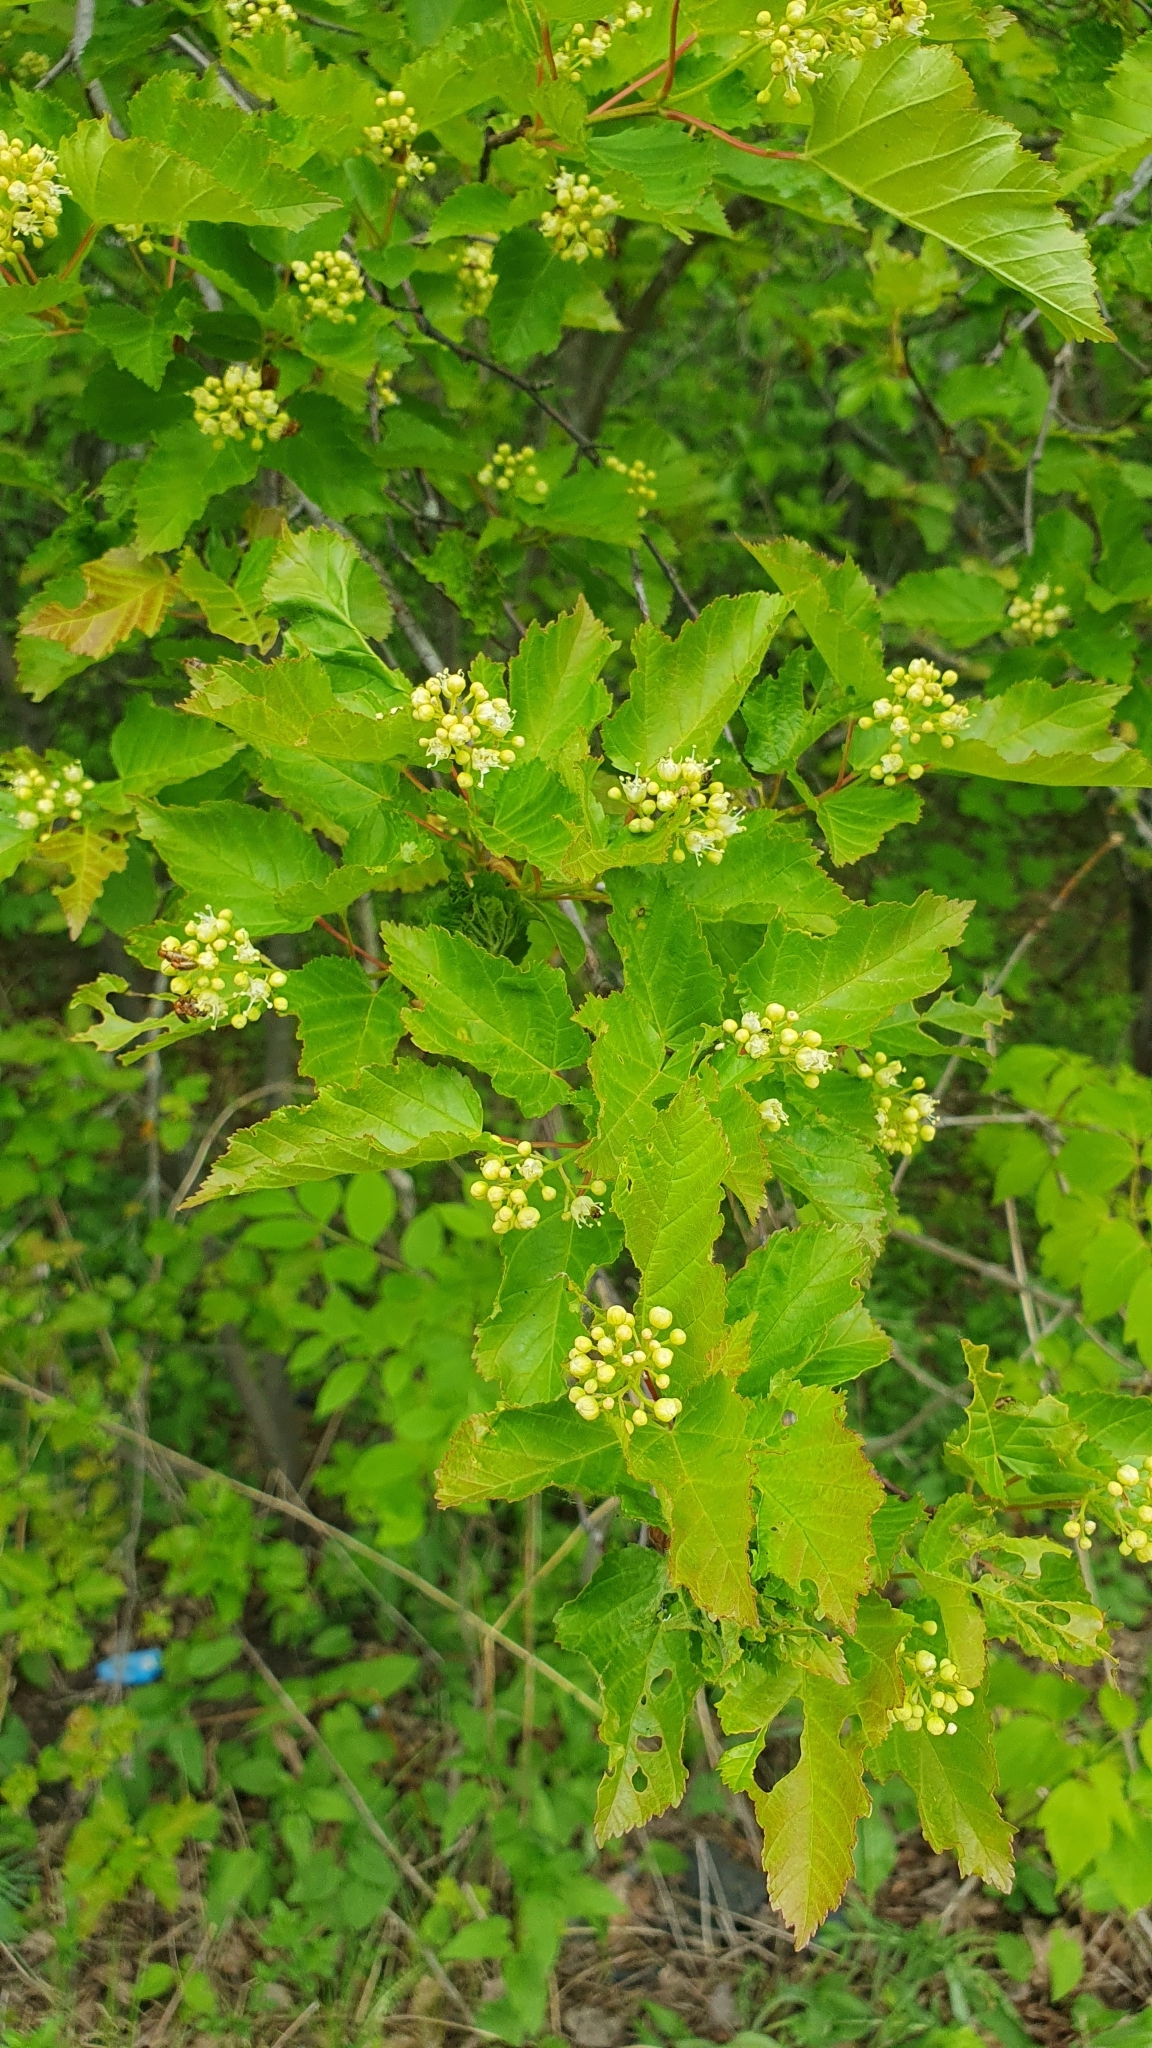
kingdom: Plantae
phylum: Tracheophyta
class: Magnoliopsida
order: Sapindales
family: Sapindaceae
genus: Acer
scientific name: Acer tataricum
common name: Tartar maple
